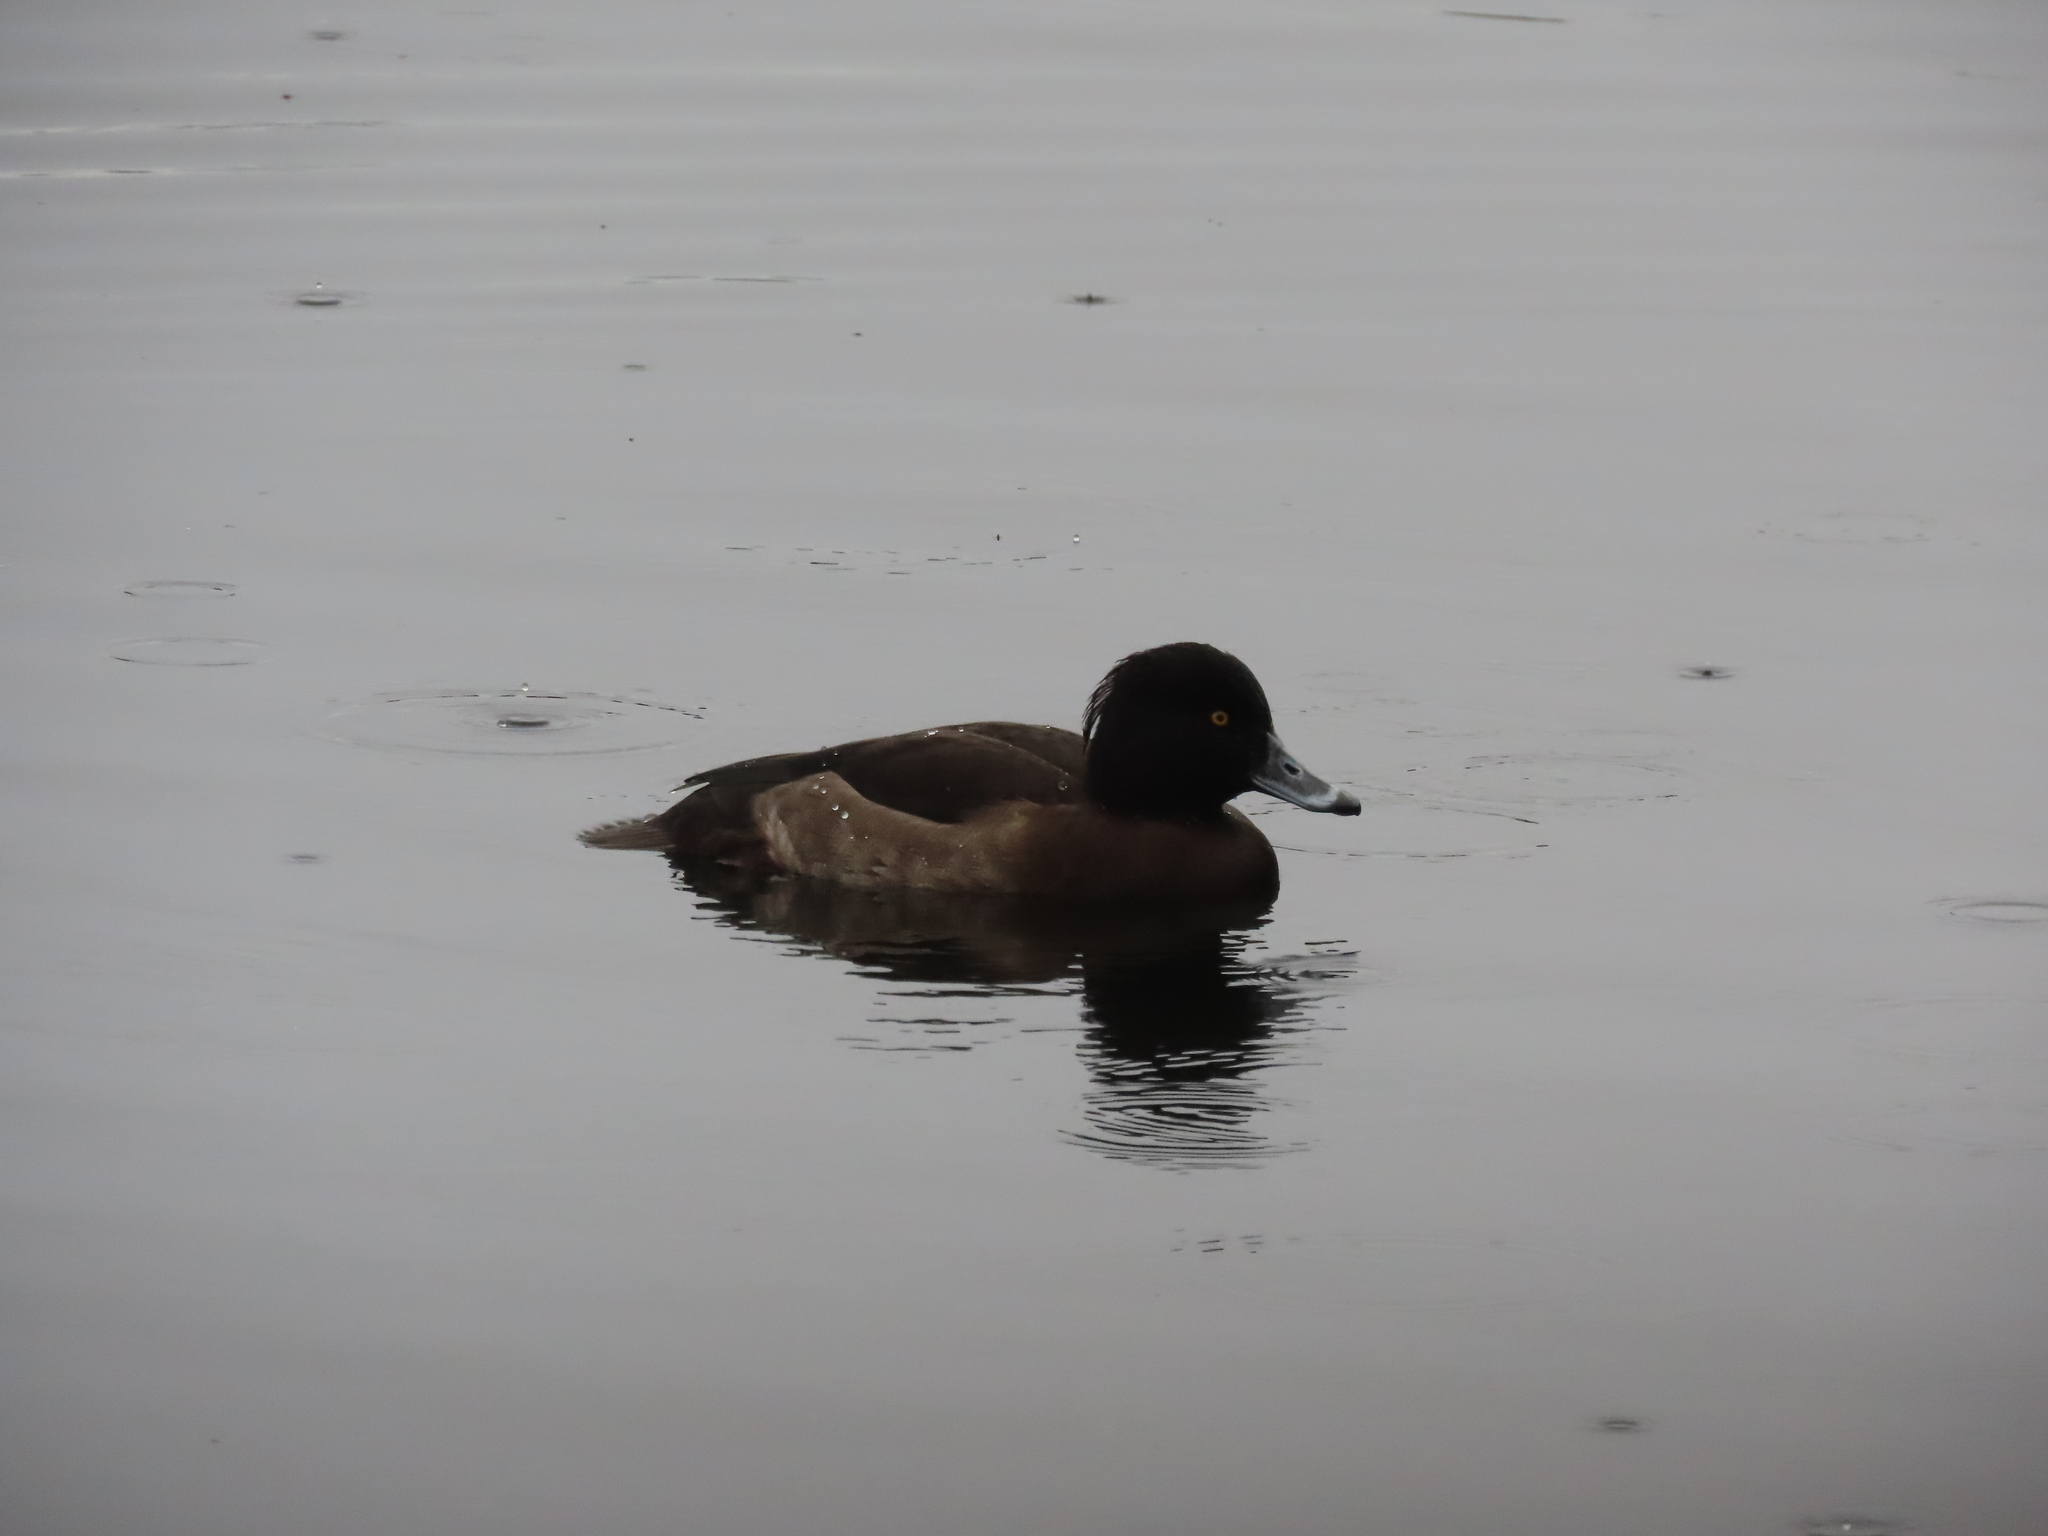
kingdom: Animalia
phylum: Chordata
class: Aves
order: Anseriformes
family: Anatidae
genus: Aythya
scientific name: Aythya fuligula
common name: Tufted duck
